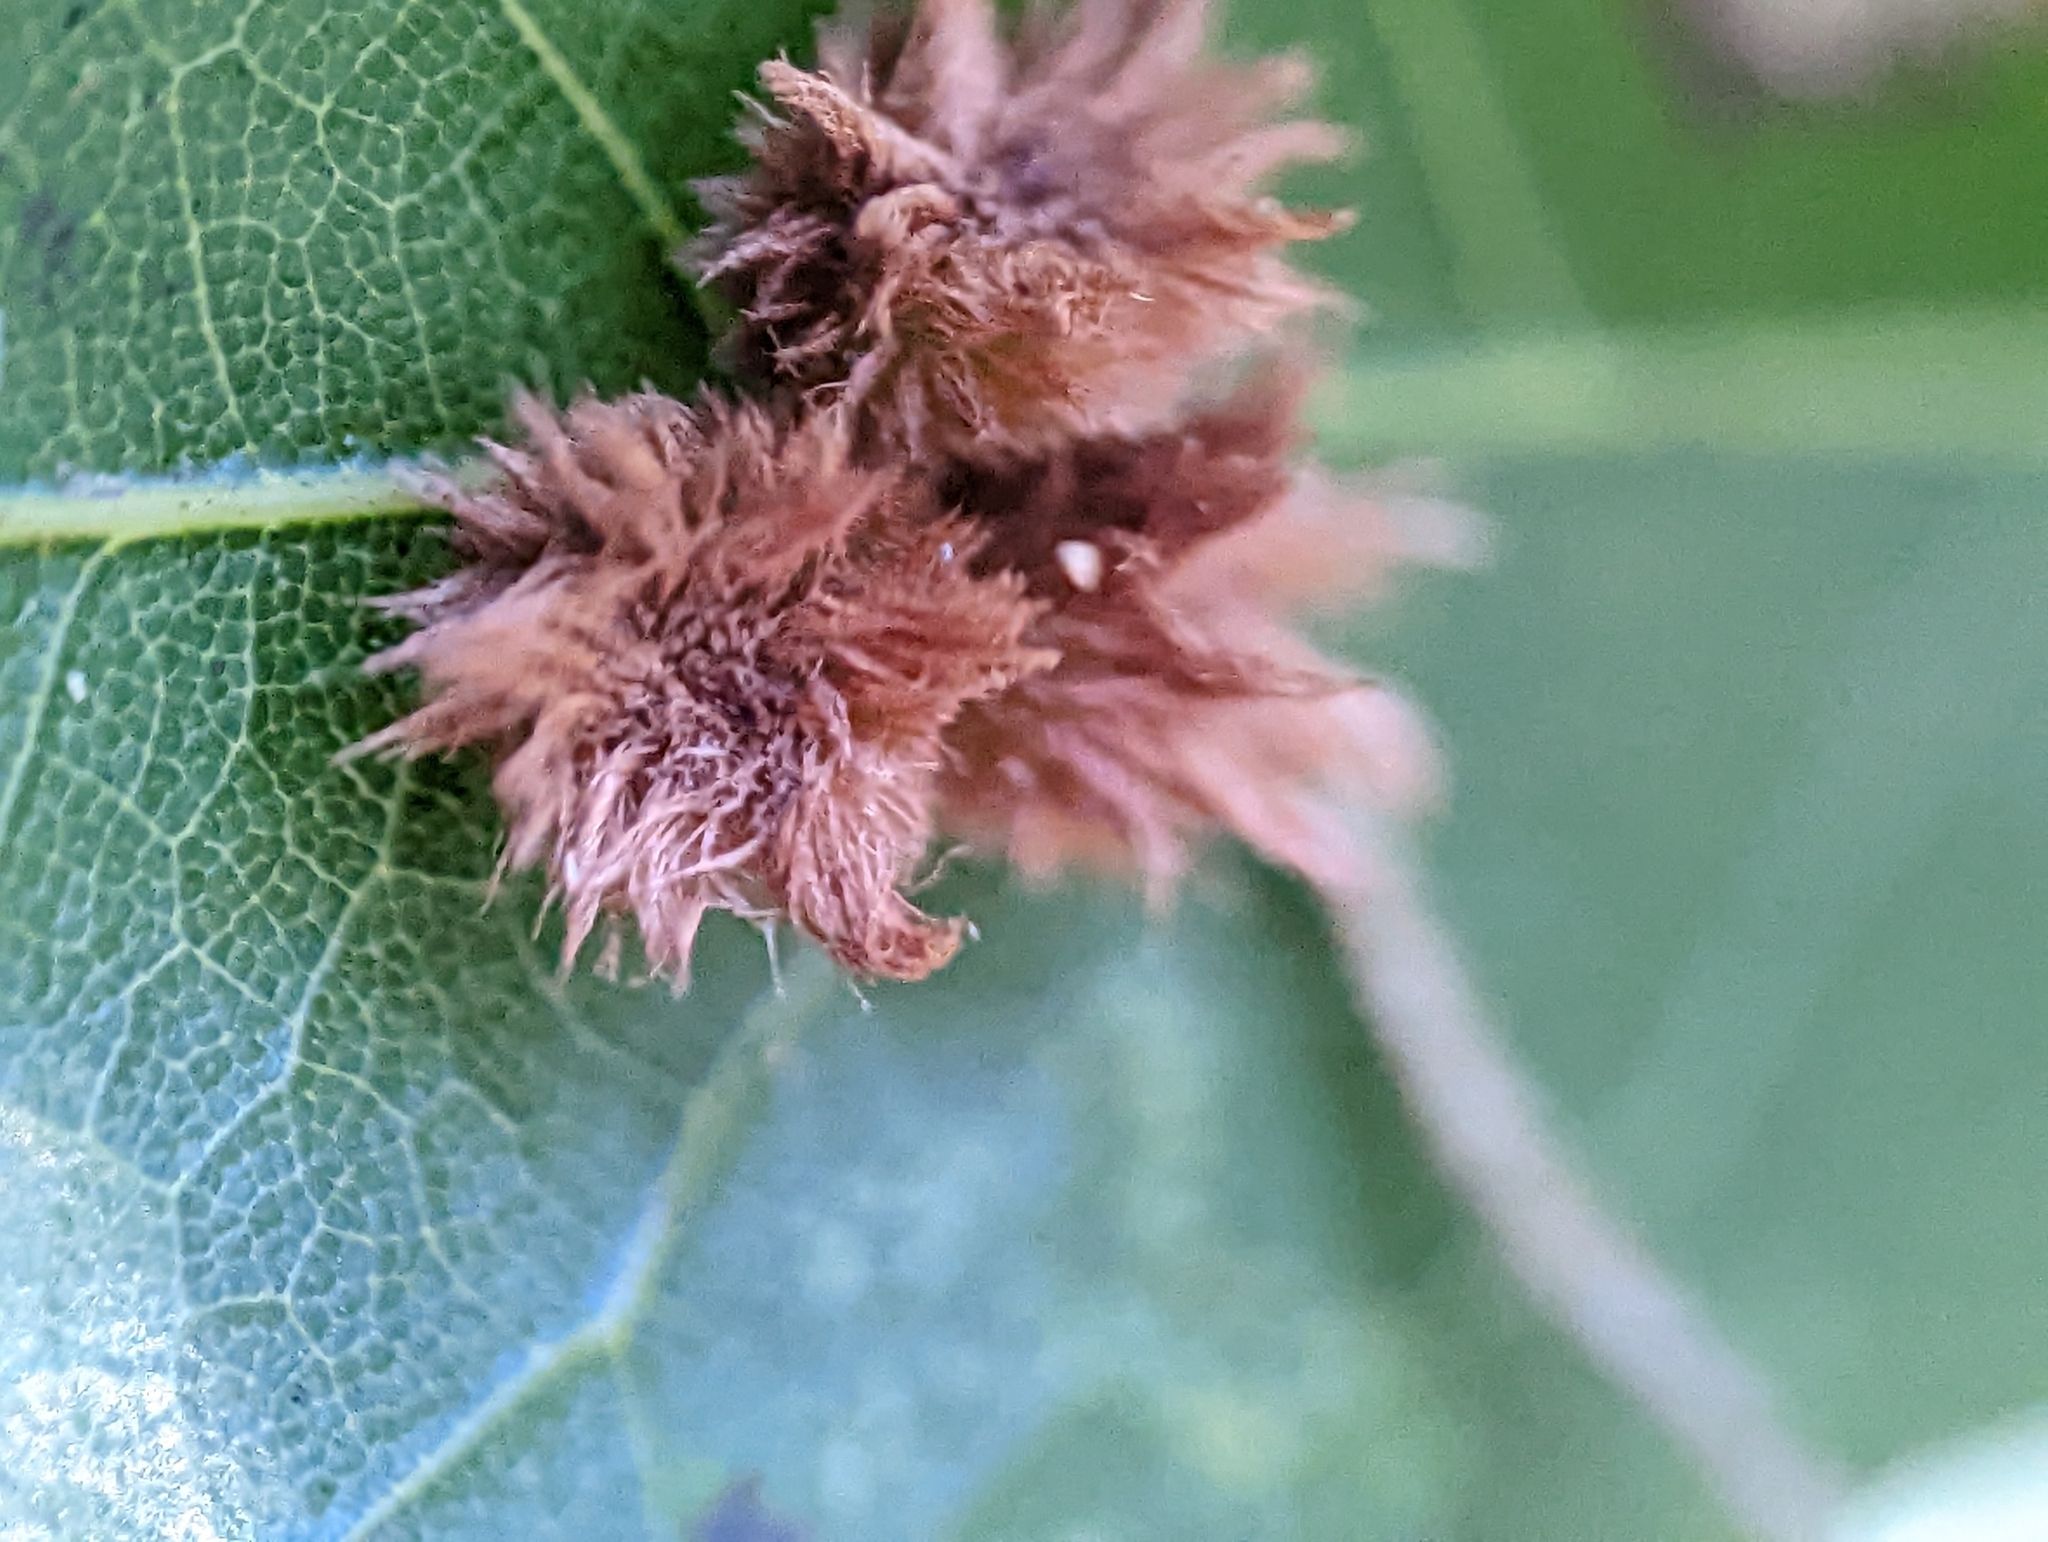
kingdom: Animalia
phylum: Arthropoda
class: Insecta
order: Hymenoptera
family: Cynipidae
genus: Callirhytis
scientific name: Callirhytis
